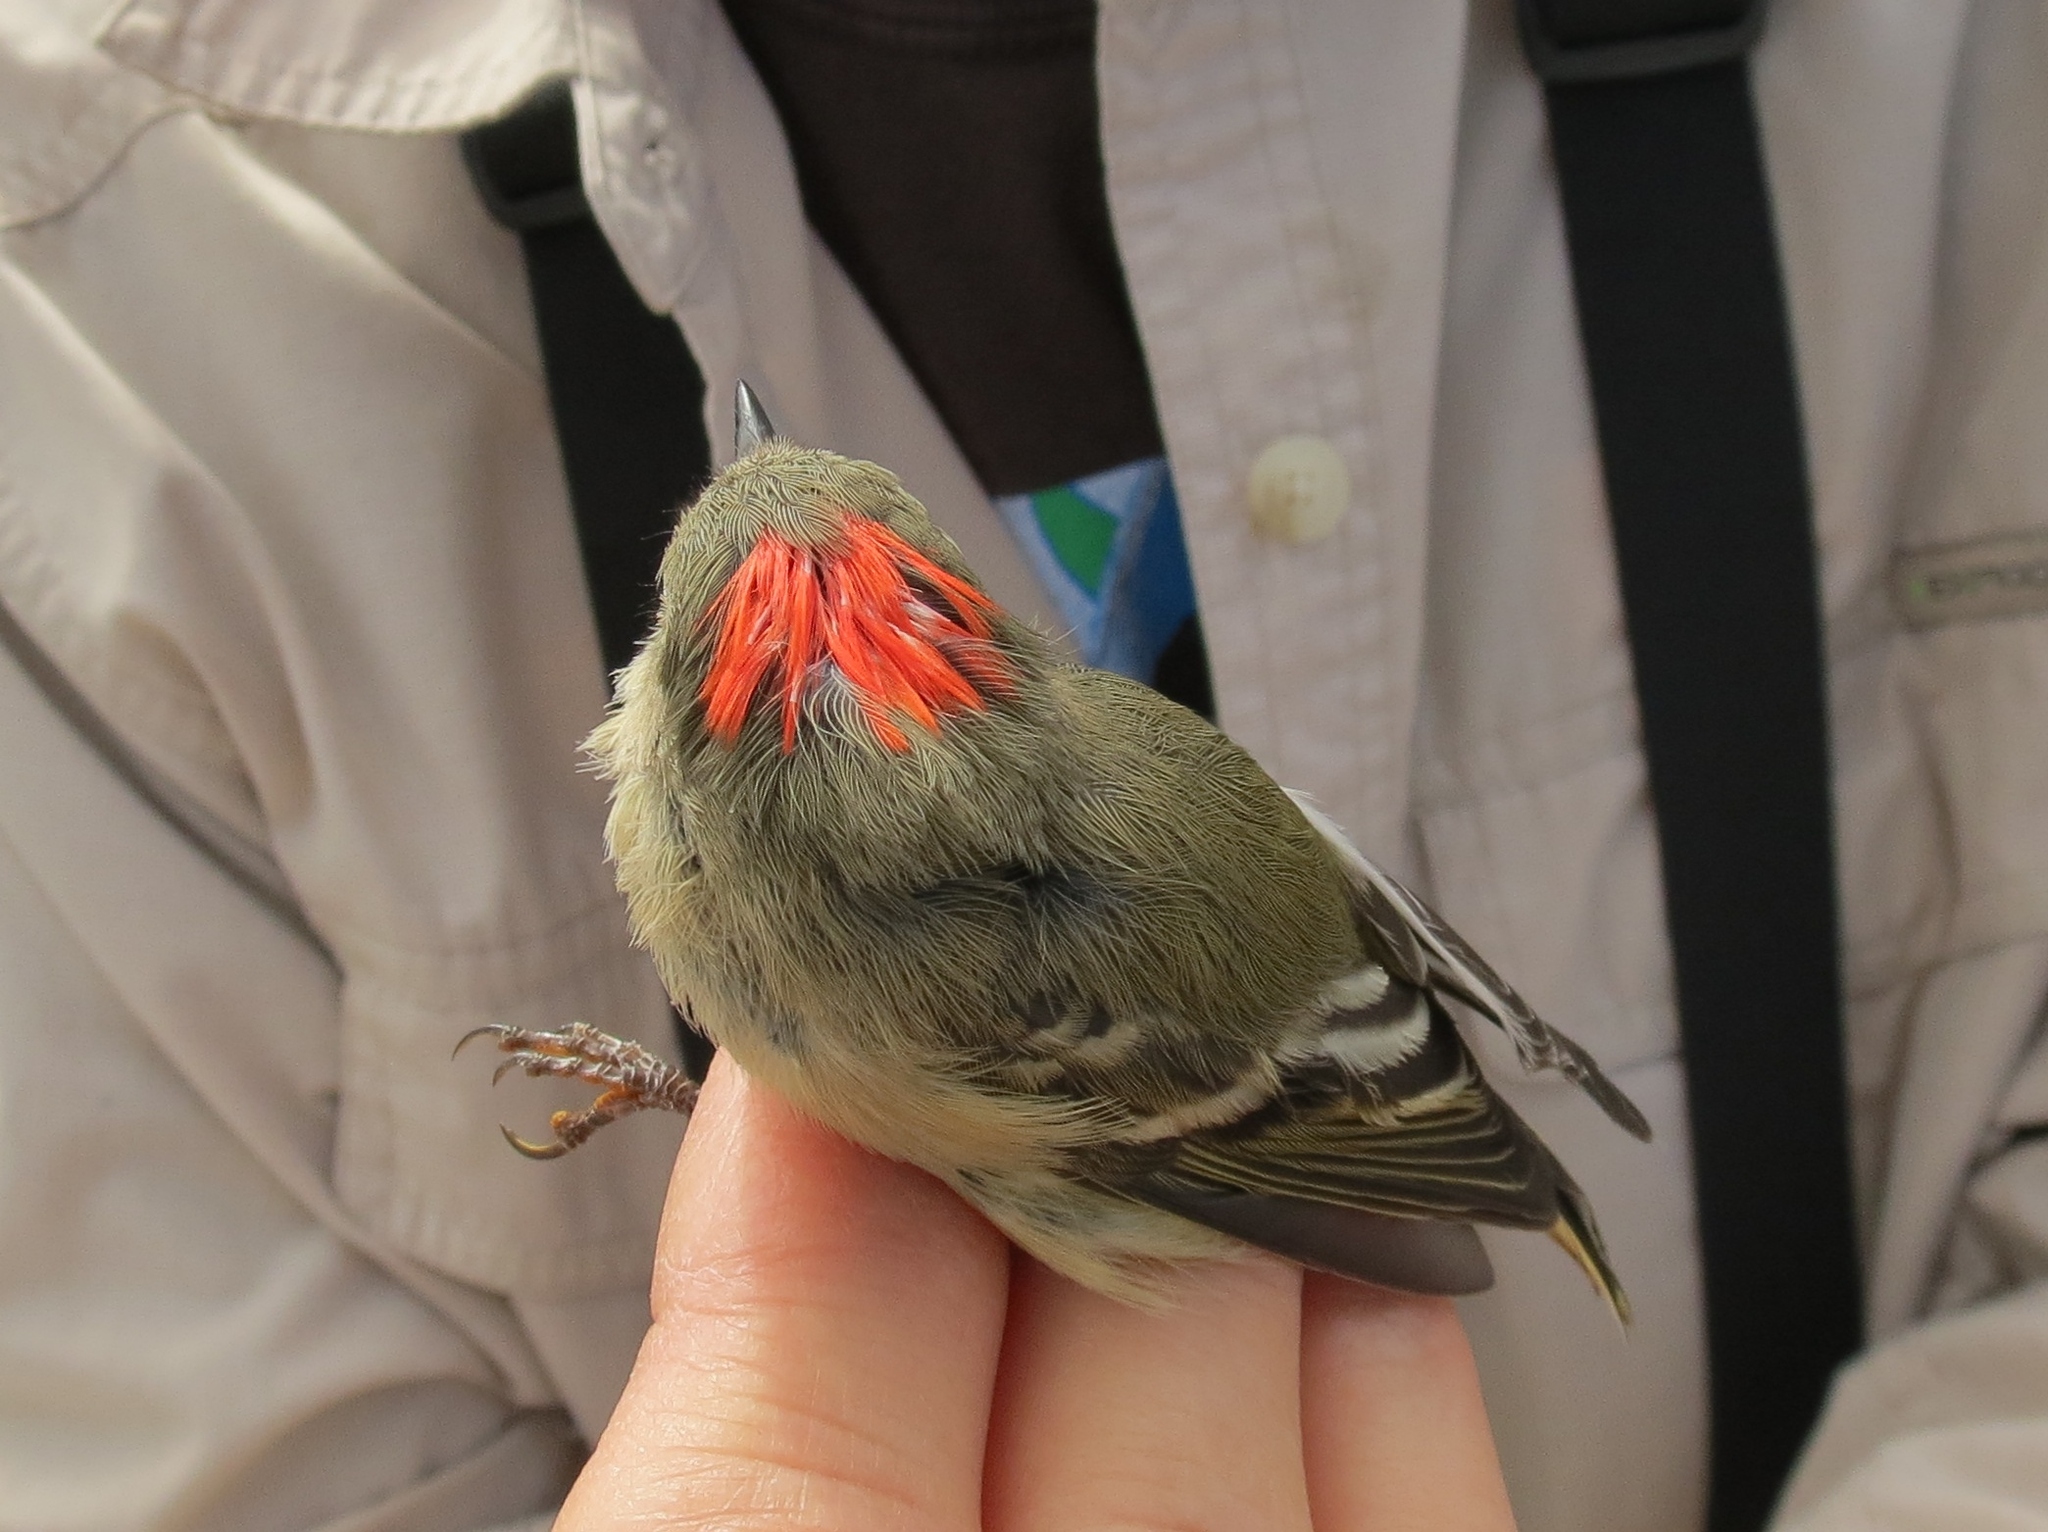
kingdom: Animalia
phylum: Chordata
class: Aves
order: Passeriformes
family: Regulidae
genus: Regulus
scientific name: Regulus calendula
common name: Ruby-crowned kinglet
